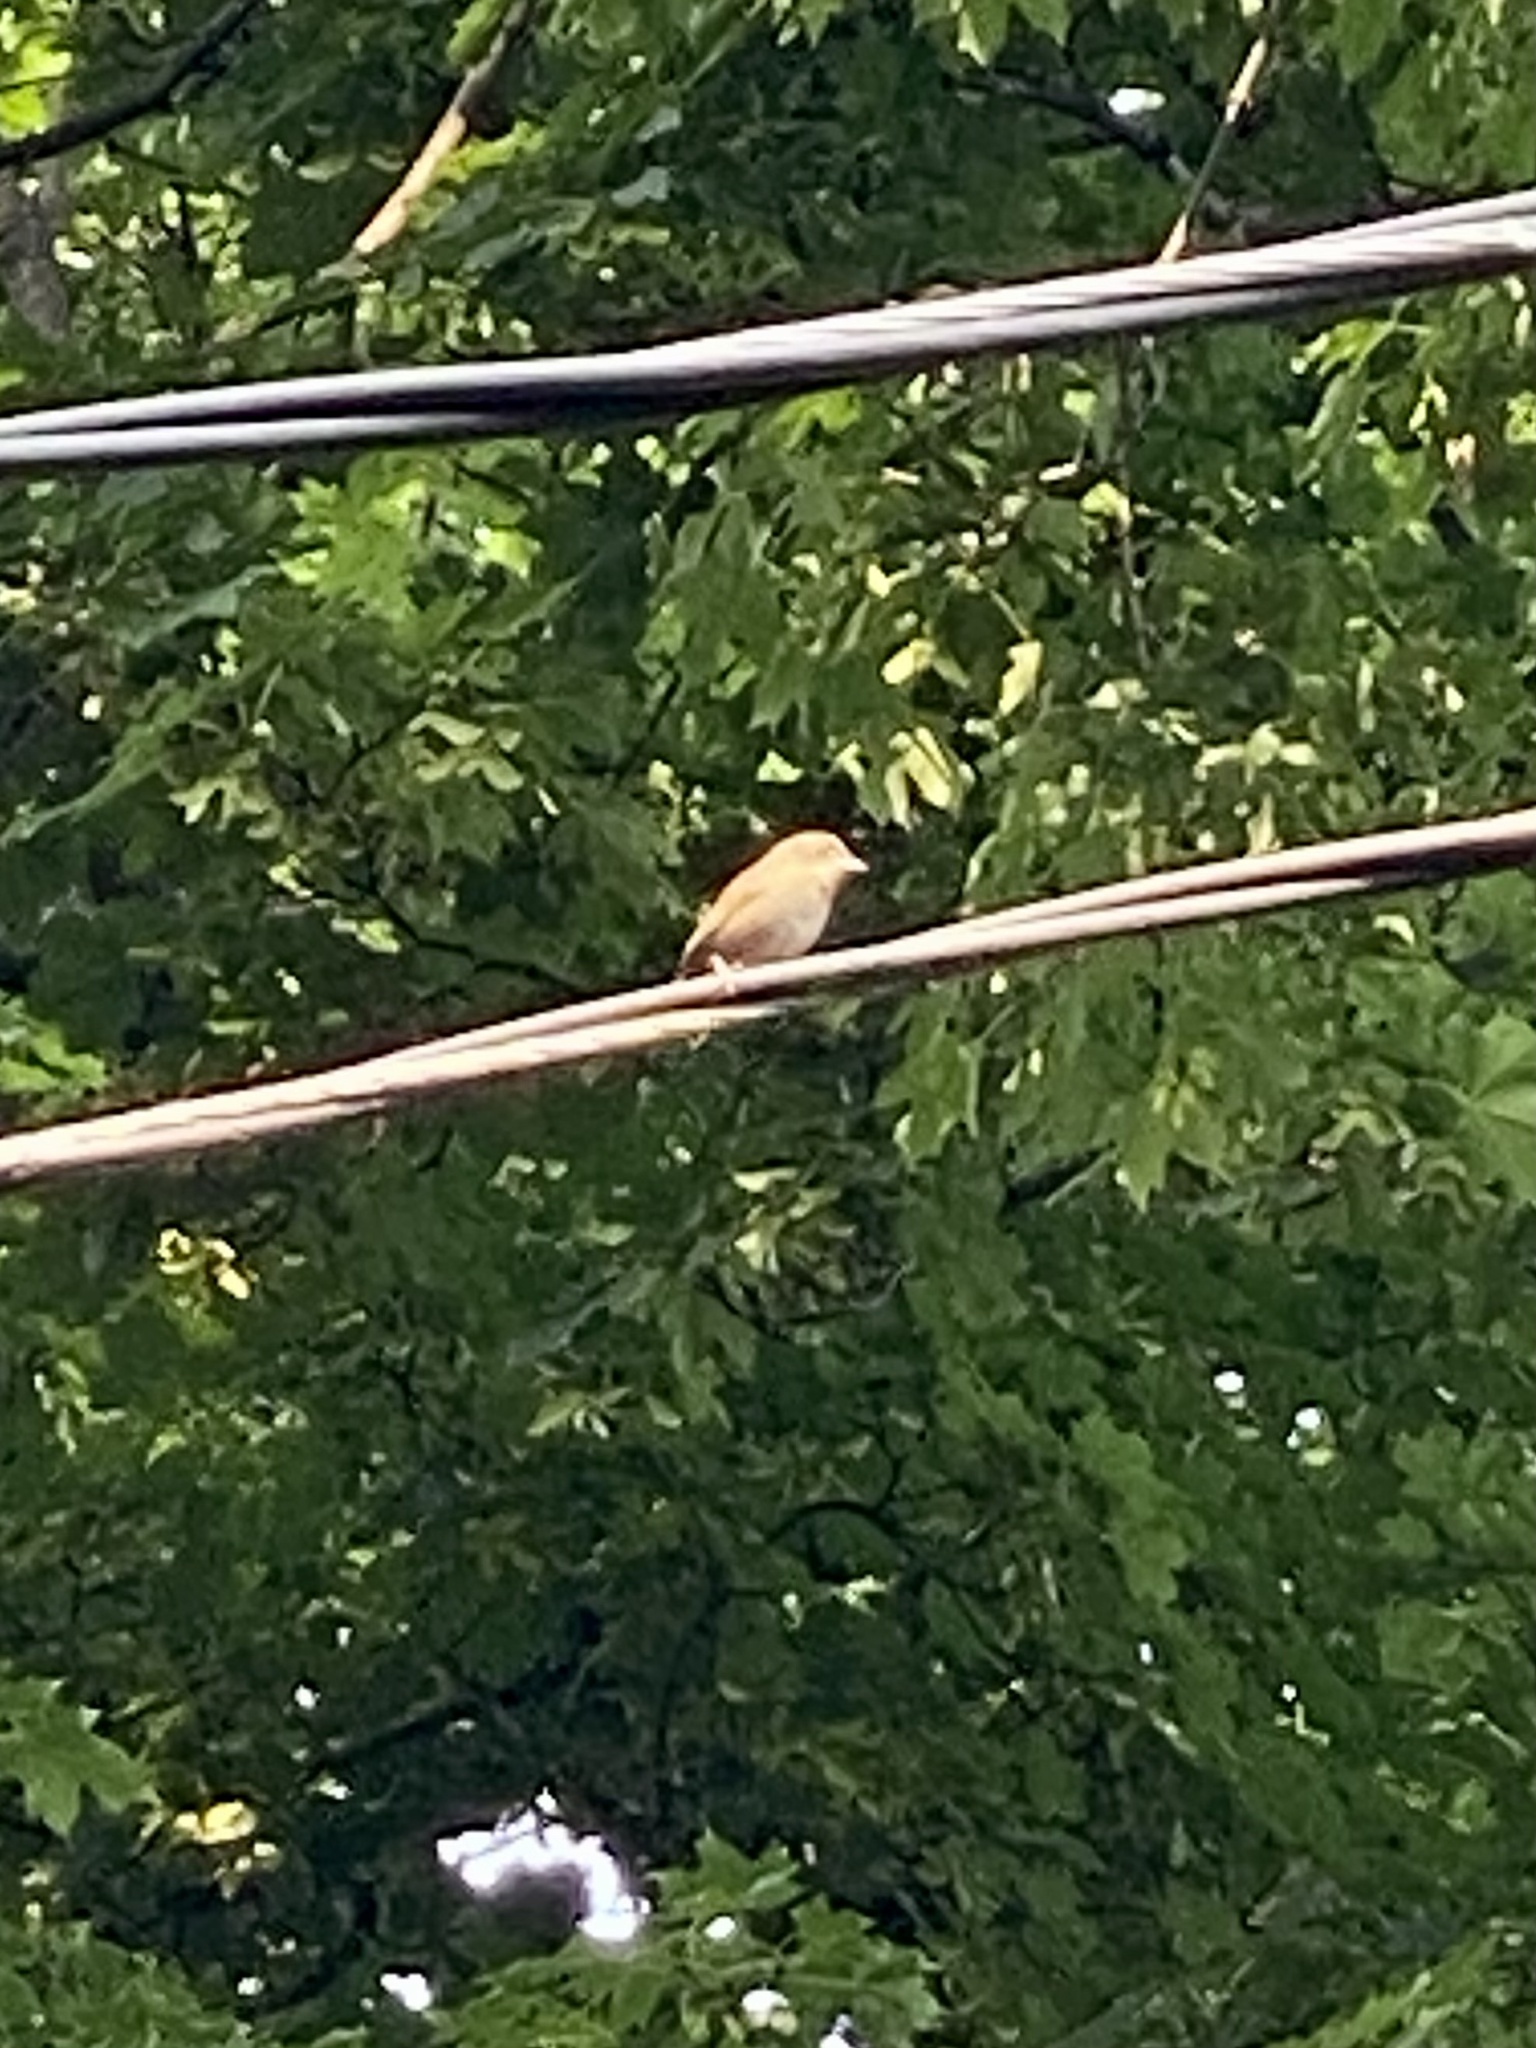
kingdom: Animalia
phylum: Chordata
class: Aves
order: Passeriformes
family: Troglodytidae
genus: Troglodytes
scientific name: Troglodytes aedon
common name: House wren
